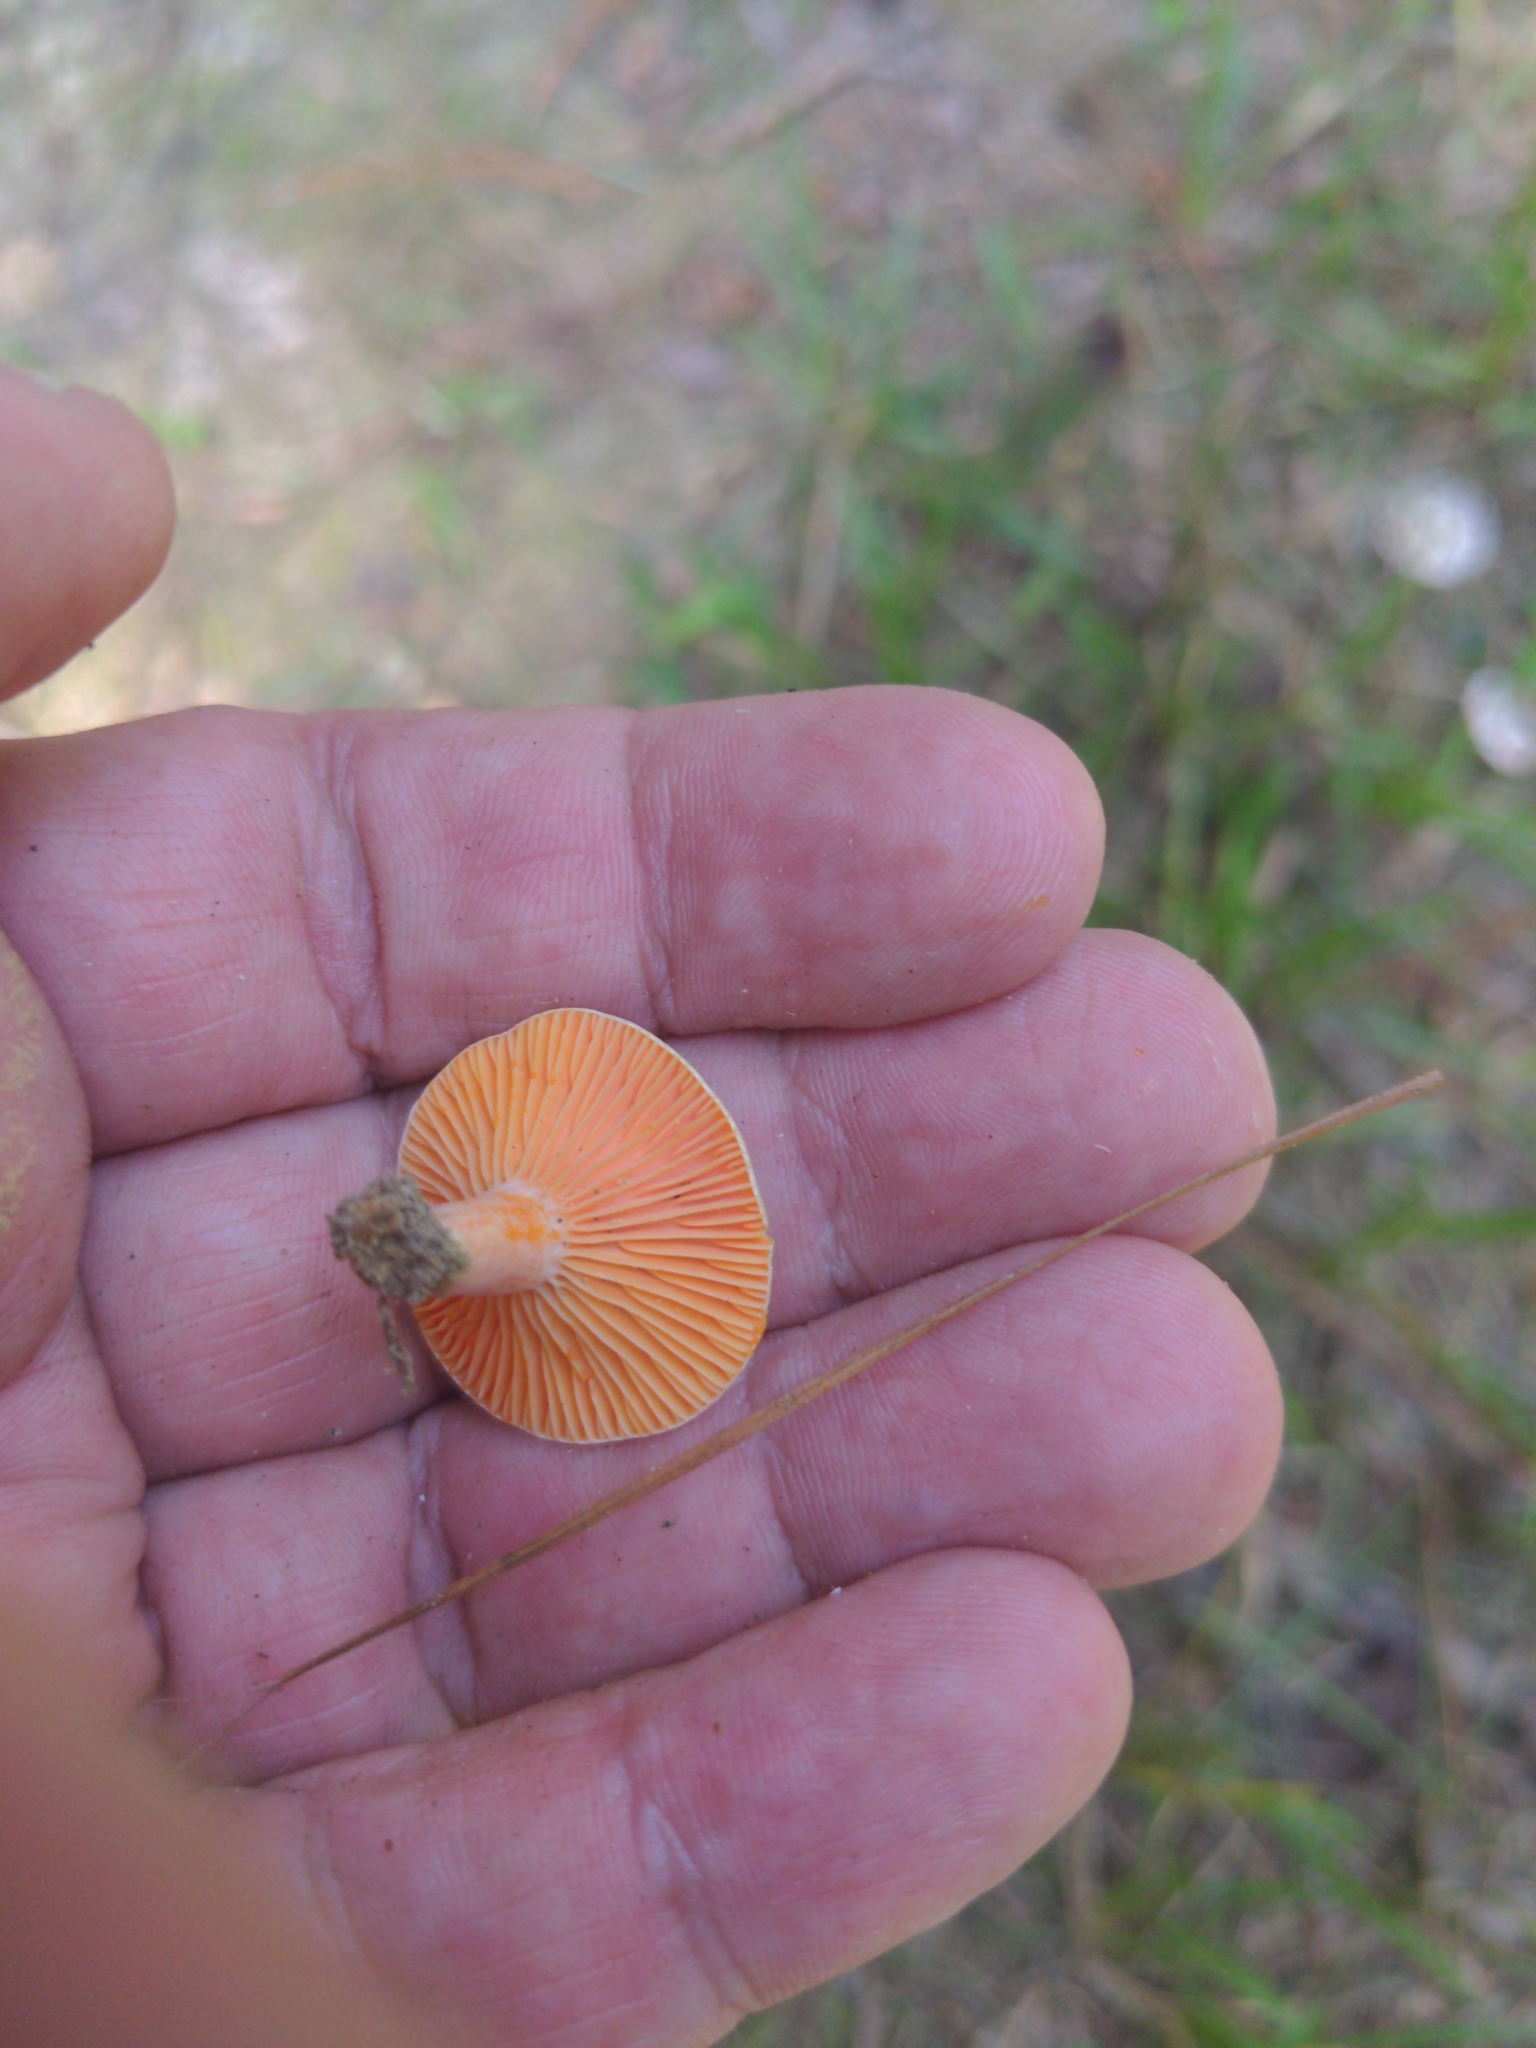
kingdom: Fungi
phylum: Basidiomycota
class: Agaricomycetes
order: Russulales
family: Russulaceae
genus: Lactarius
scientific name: Lactarius salmoneus
